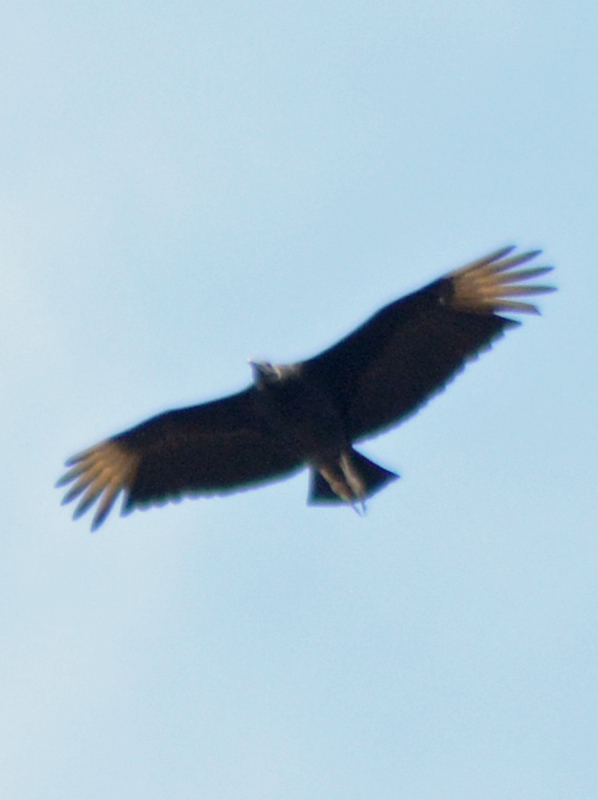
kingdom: Animalia
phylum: Chordata
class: Aves
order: Accipitriformes
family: Cathartidae
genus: Coragyps
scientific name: Coragyps atratus
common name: Black vulture
